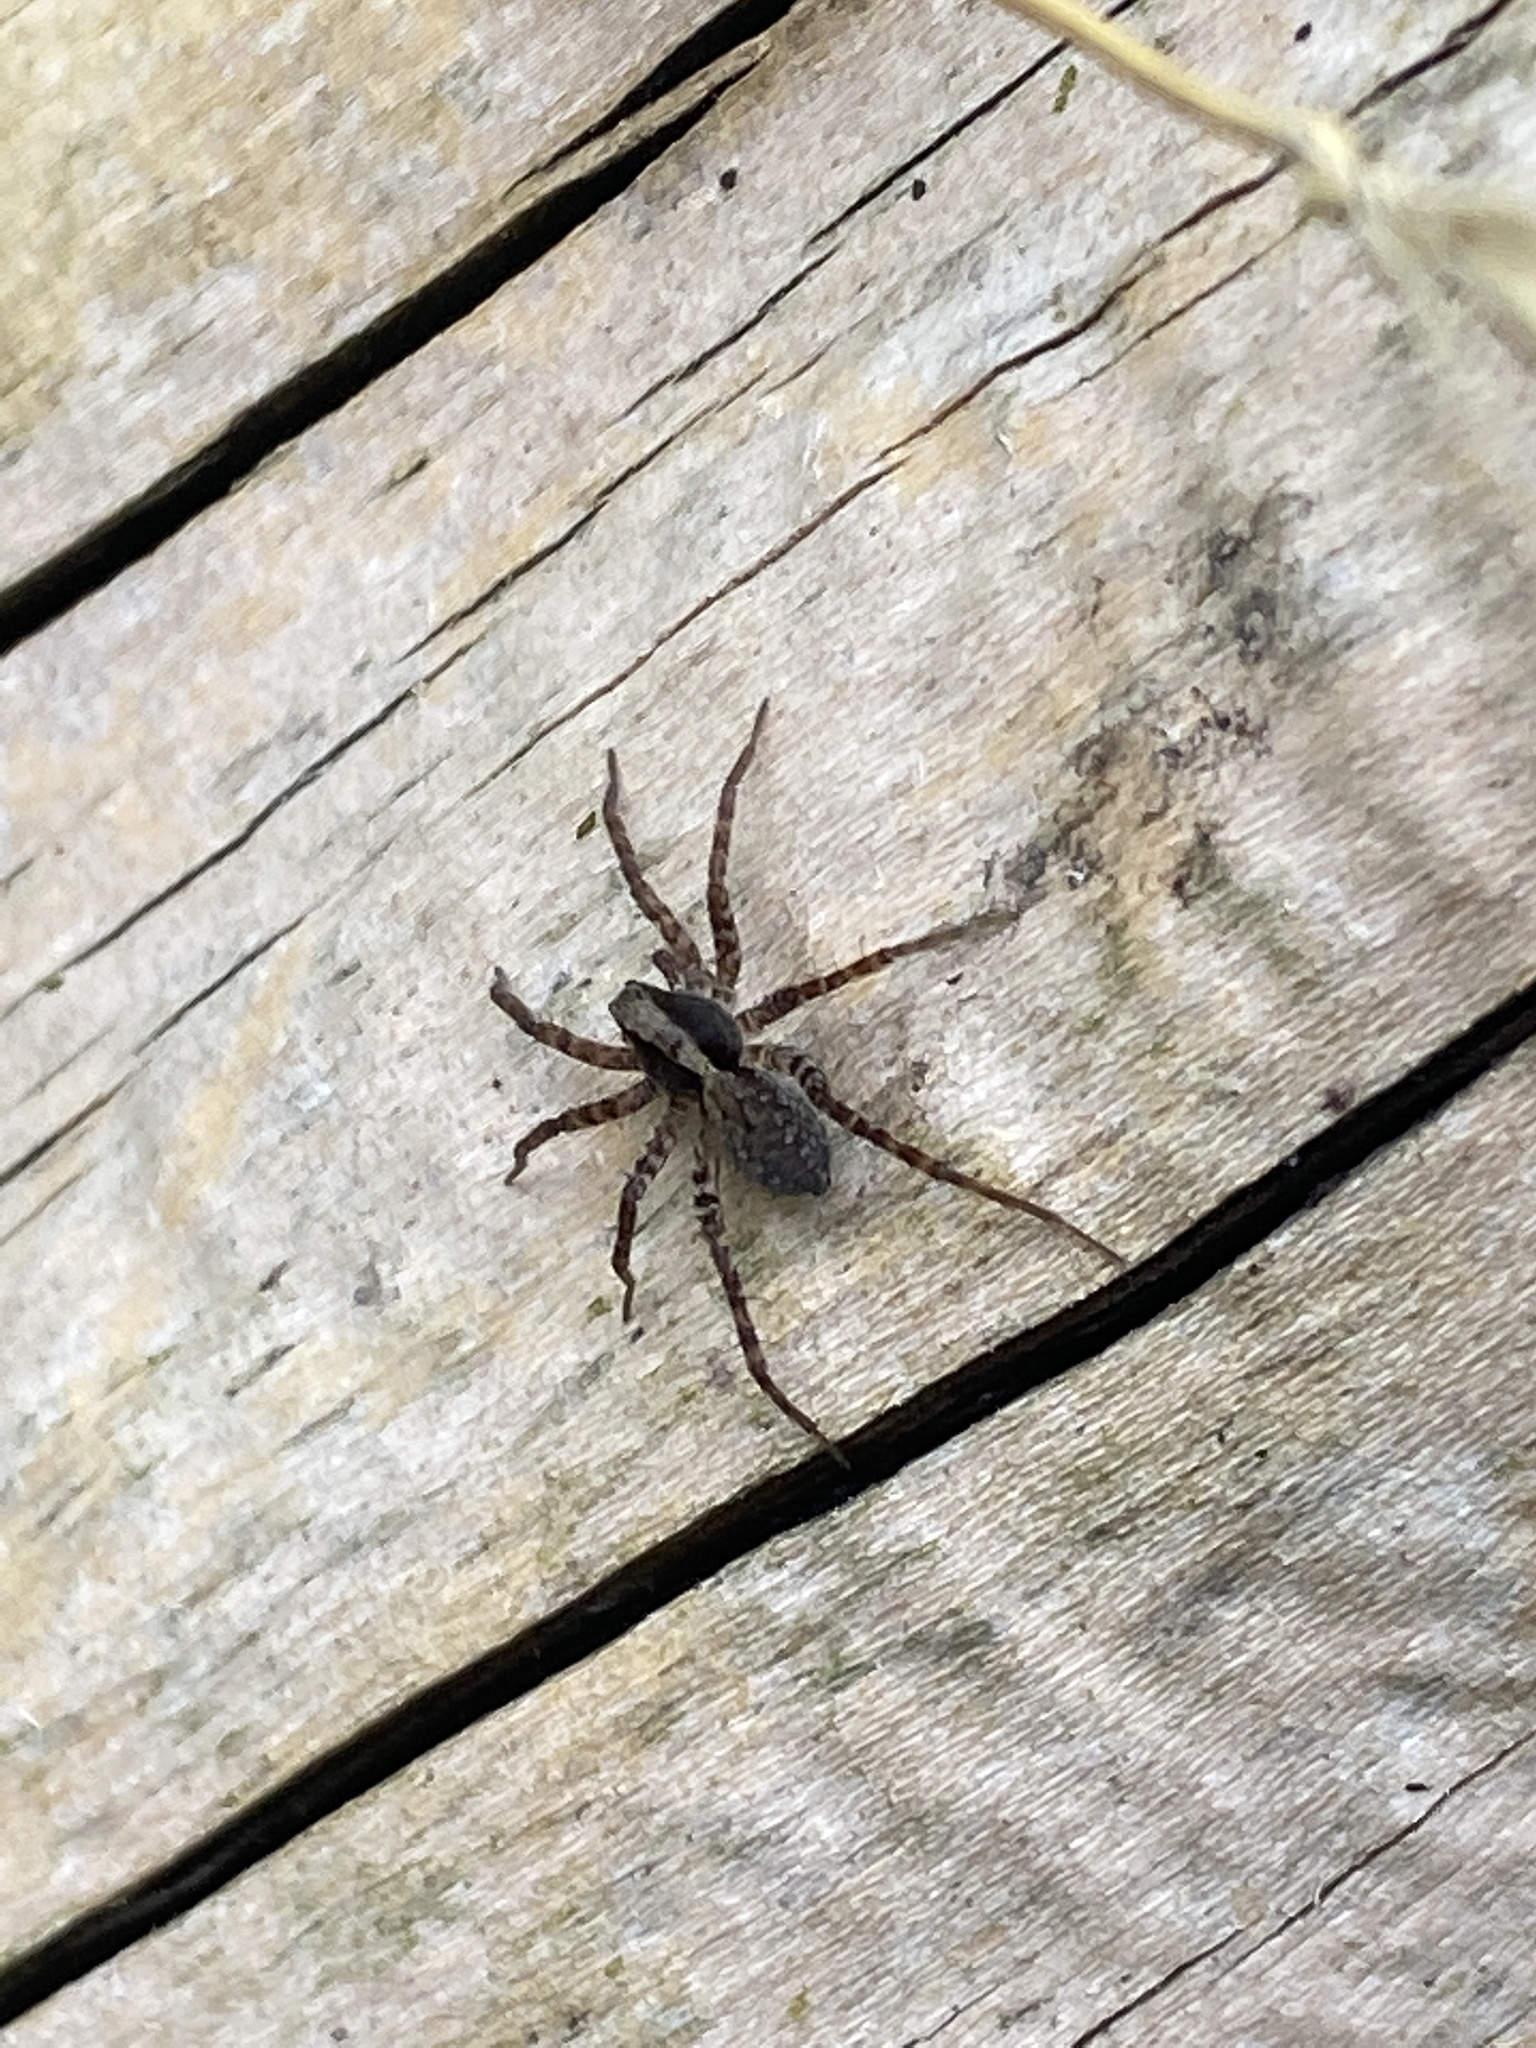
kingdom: Animalia
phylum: Arthropoda
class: Arachnida
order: Araneae
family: Lycosidae
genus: Pardosa
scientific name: Pardosa
